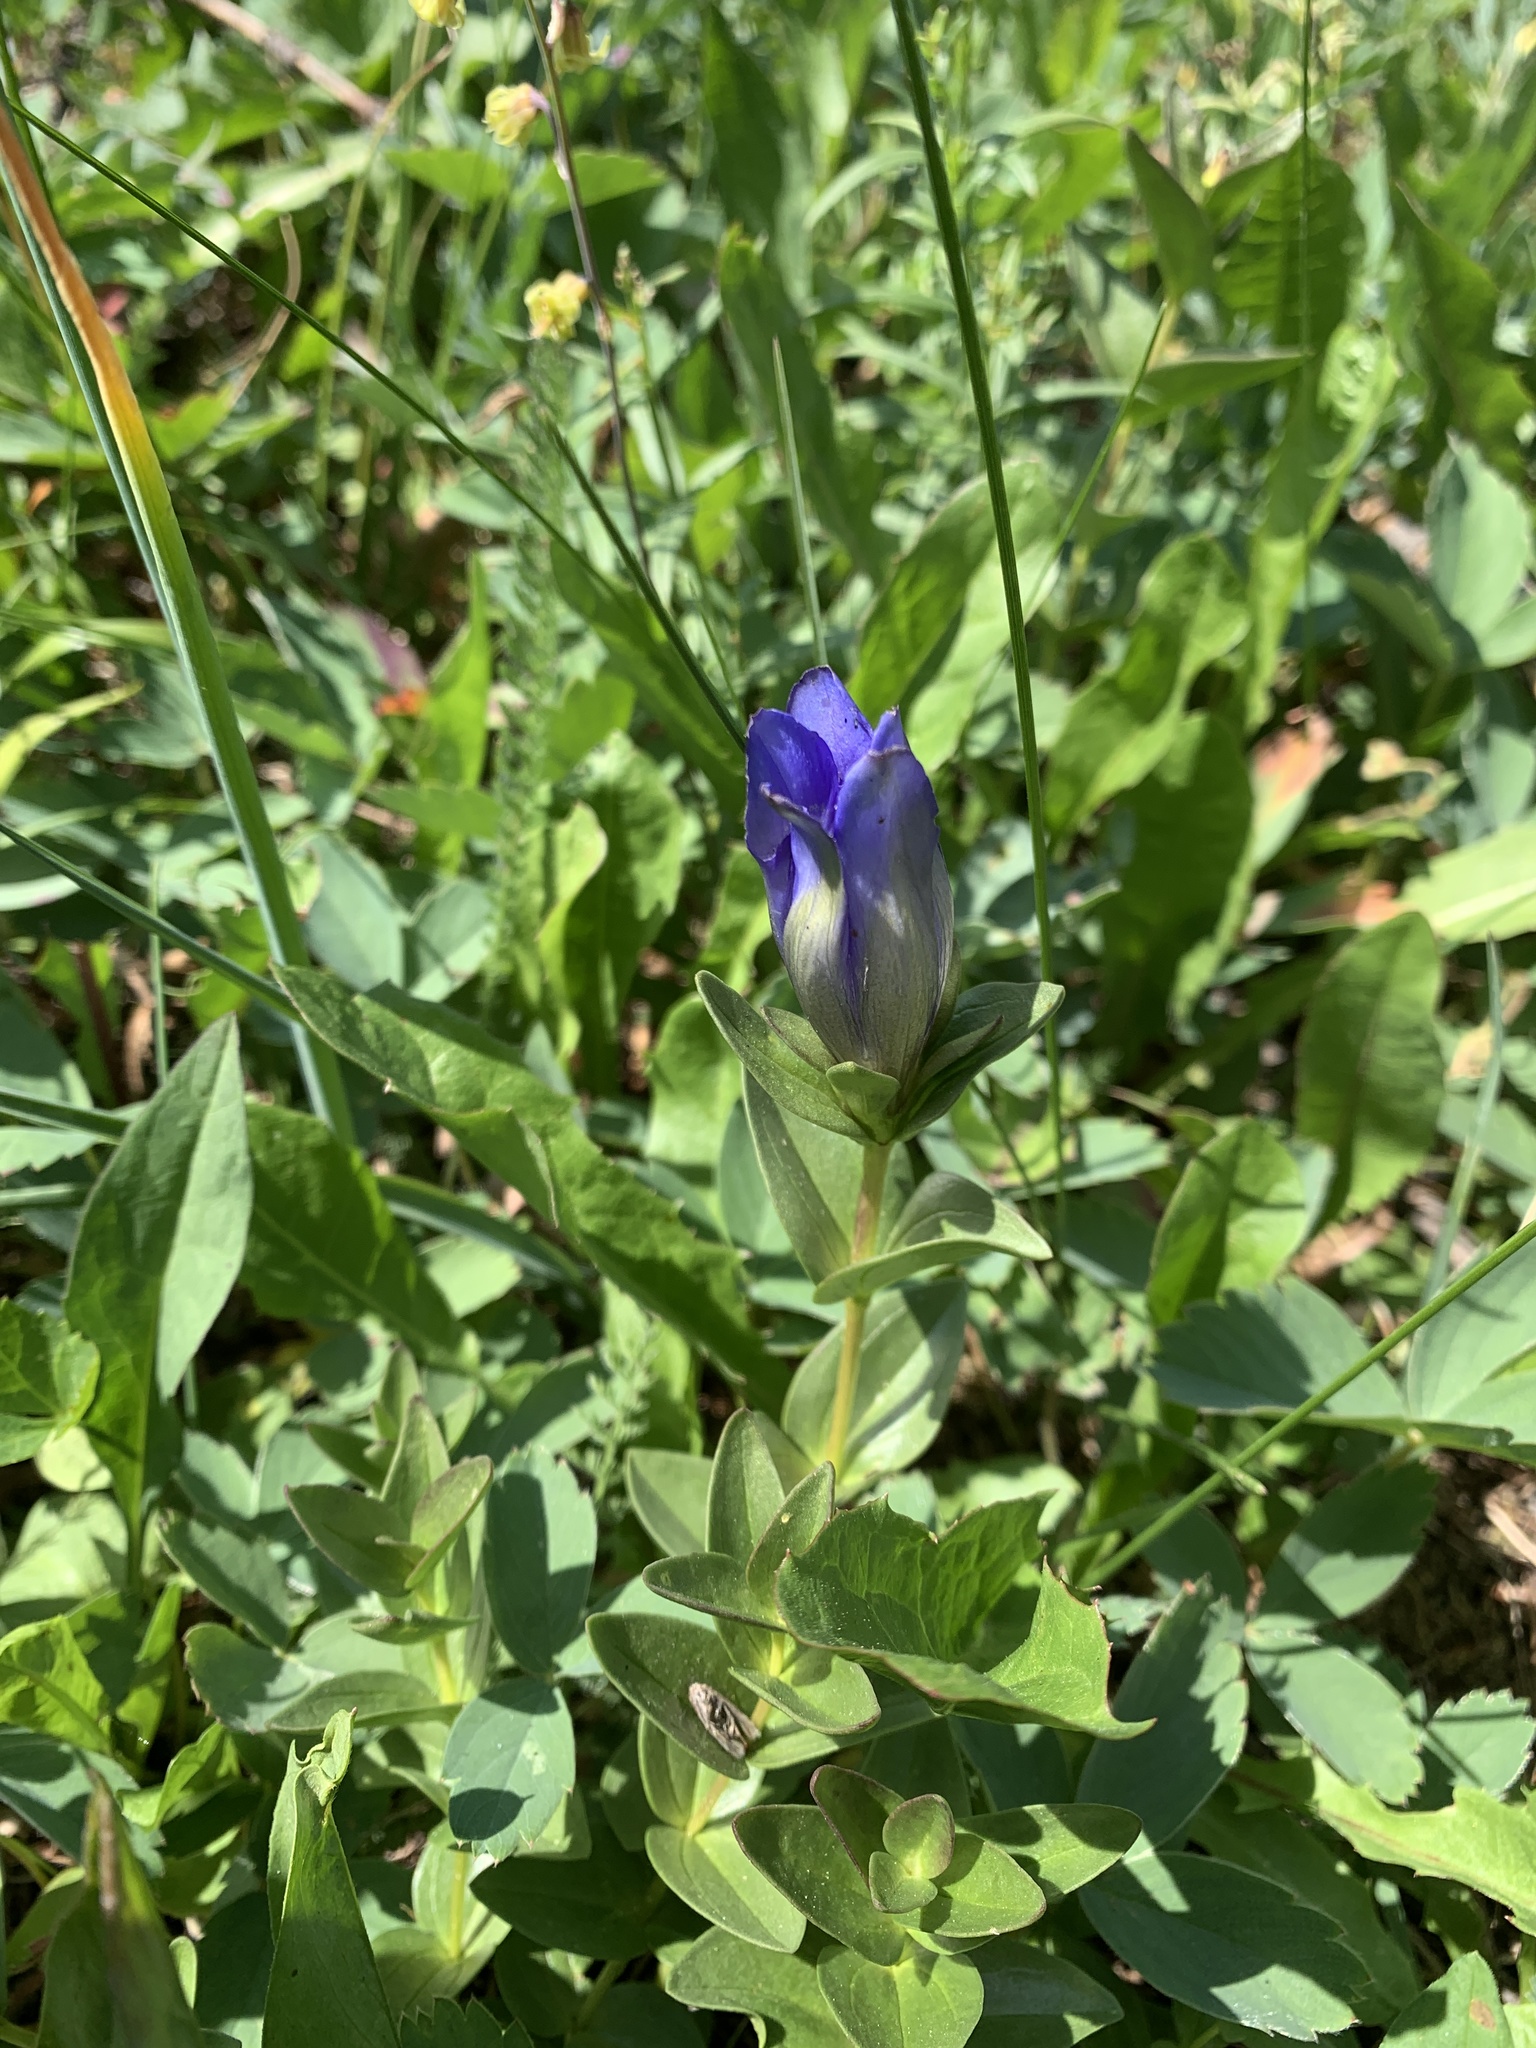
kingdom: Plantae
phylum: Tracheophyta
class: Magnoliopsida
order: Gentianales
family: Gentianaceae
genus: Gentiana
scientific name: Gentiana calycosa
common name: Rainier pleated gentian
